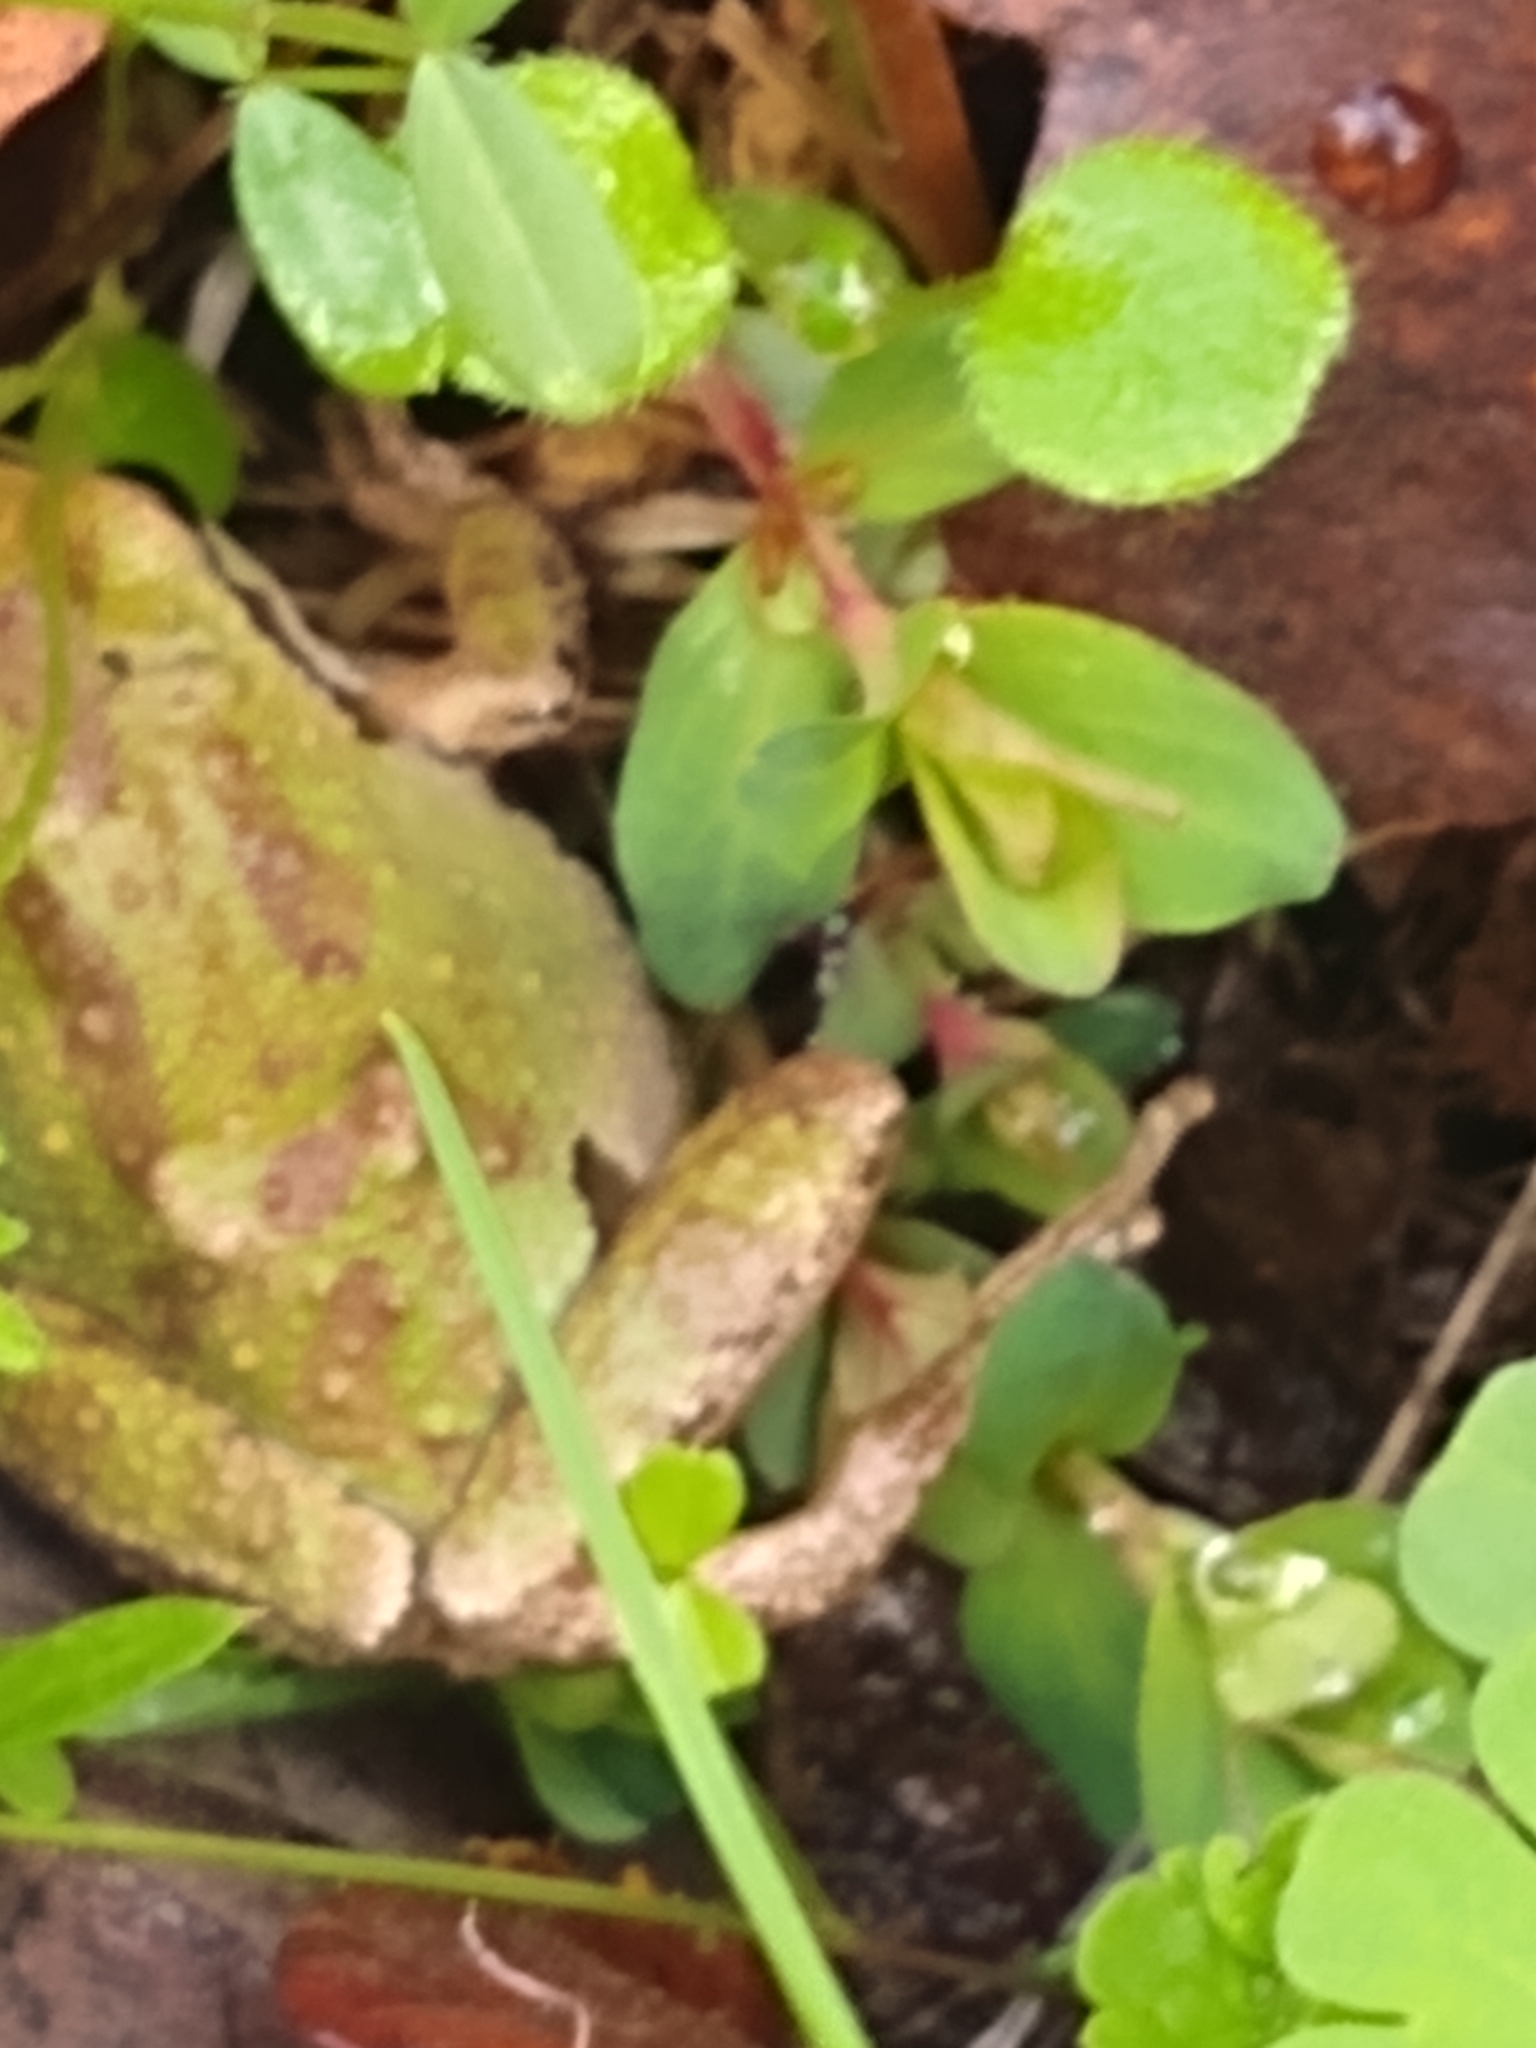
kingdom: Animalia
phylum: Chordata
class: Amphibia
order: Anura
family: Hylidae
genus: Pseudacris
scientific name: Pseudacris regilla
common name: Pacific chorus frog
